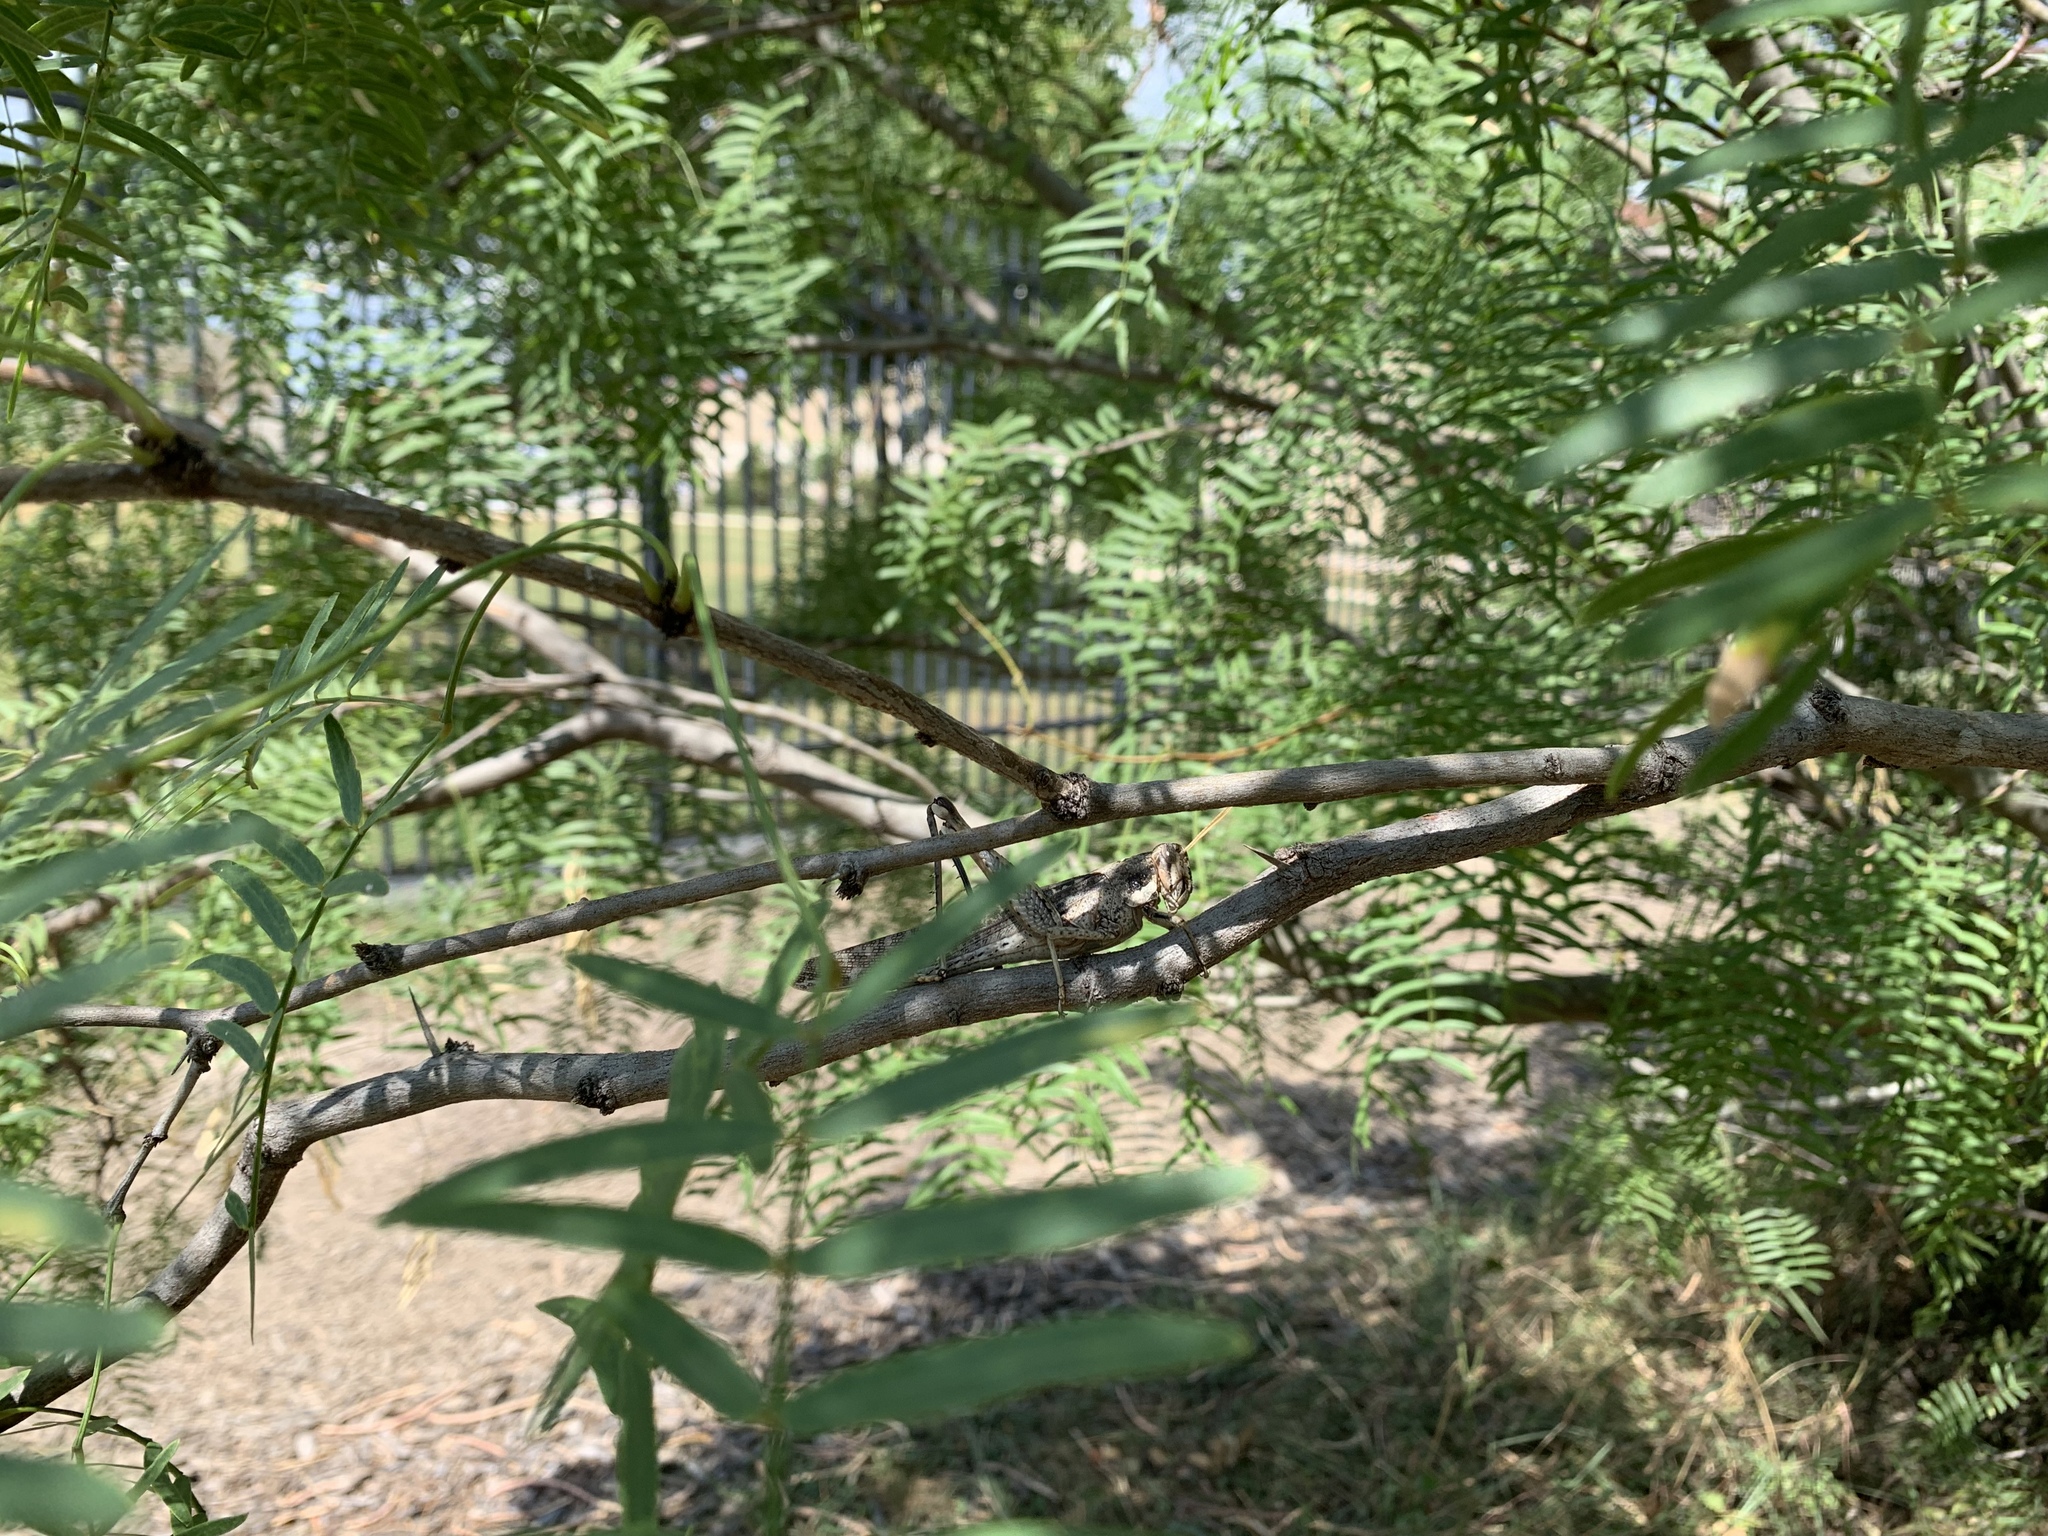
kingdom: Animalia
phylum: Arthropoda
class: Insecta
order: Orthoptera
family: Acrididae
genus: Schistocerca
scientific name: Schistocerca nitens
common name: Vagrant grasshopper
